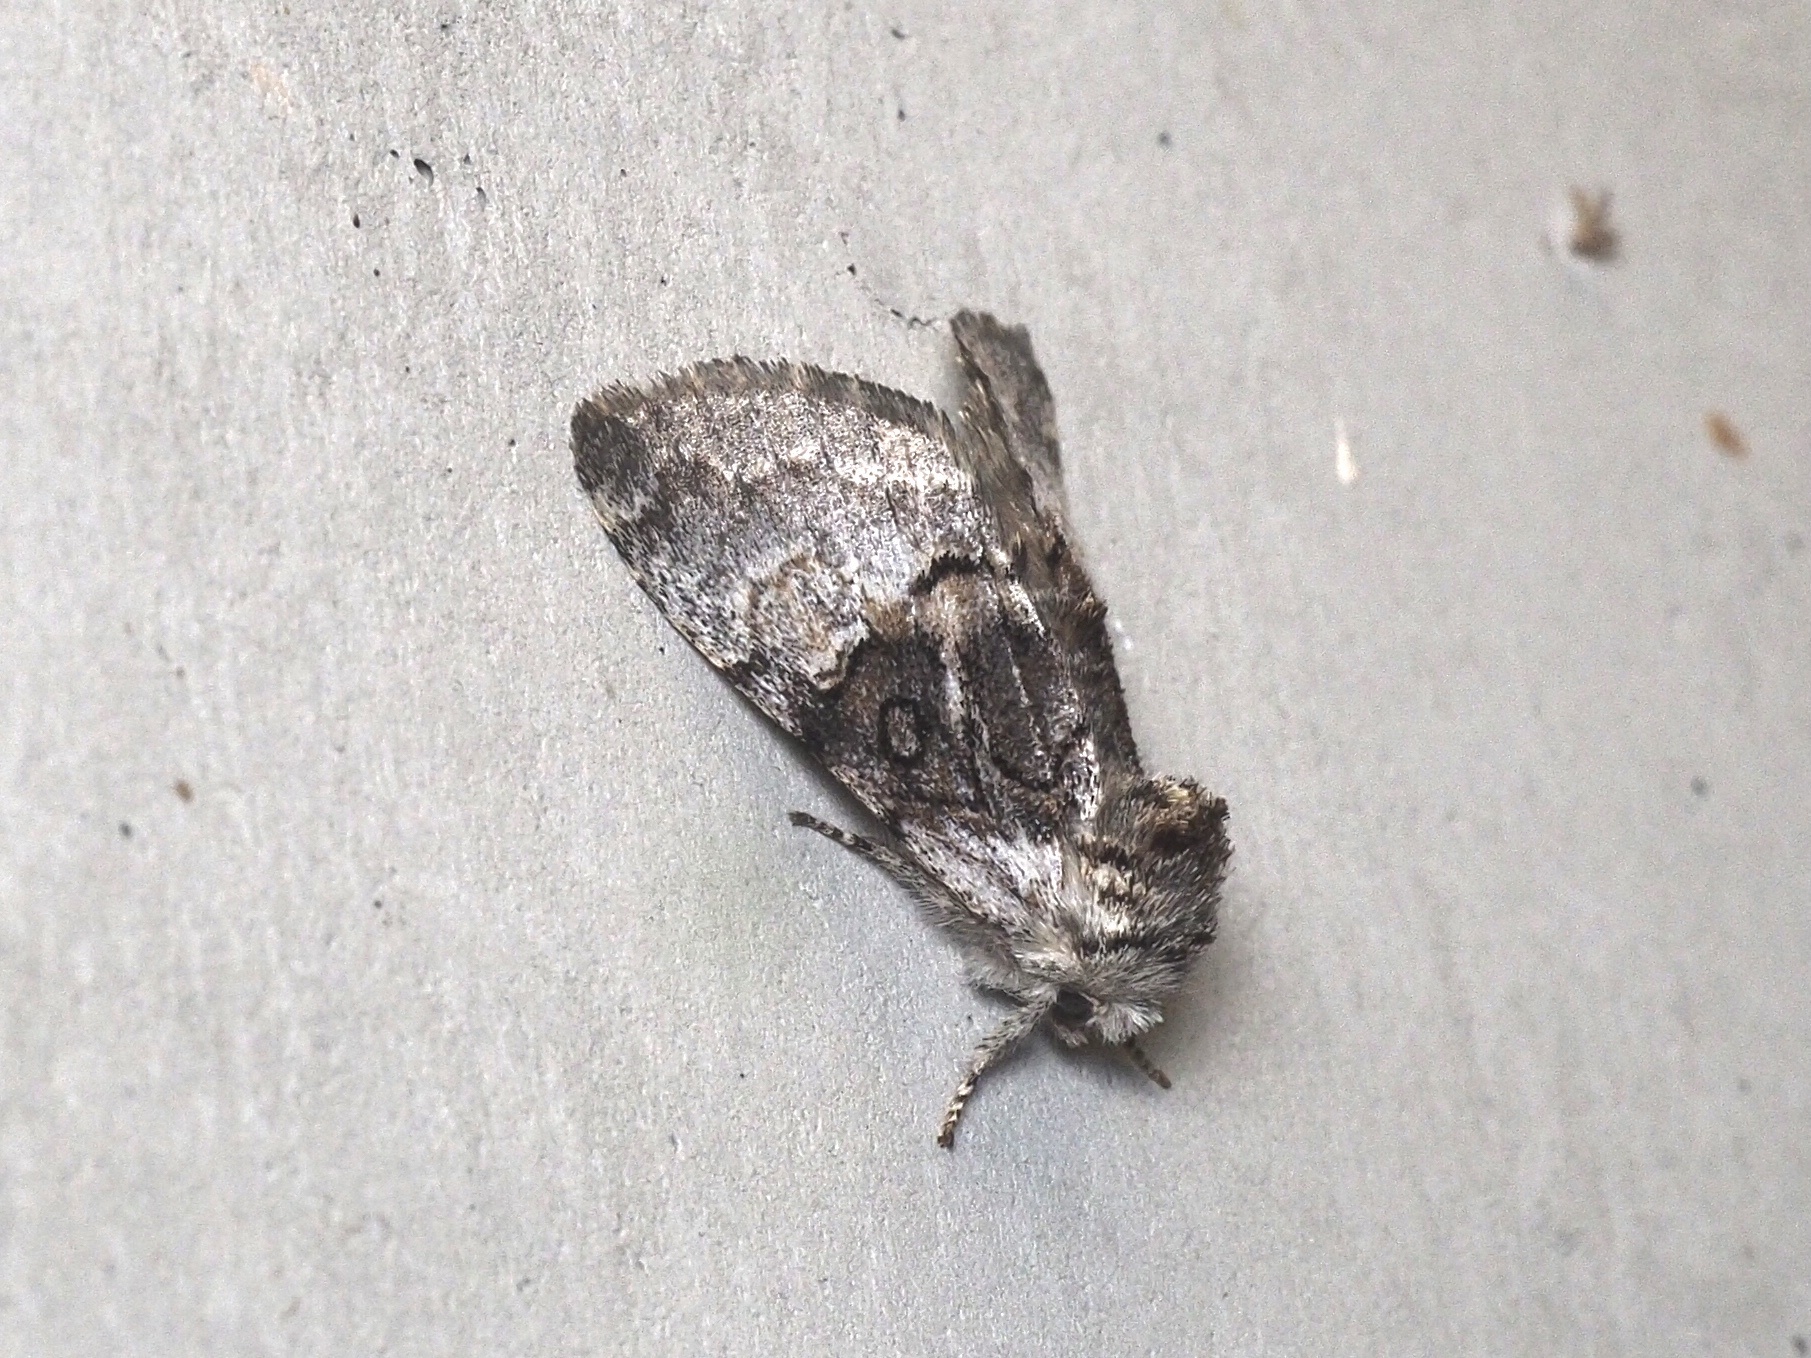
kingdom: Animalia
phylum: Arthropoda
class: Insecta
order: Lepidoptera
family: Noctuidae
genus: Colocasia
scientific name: Colocasia coryli
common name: Nut-tree tussock
